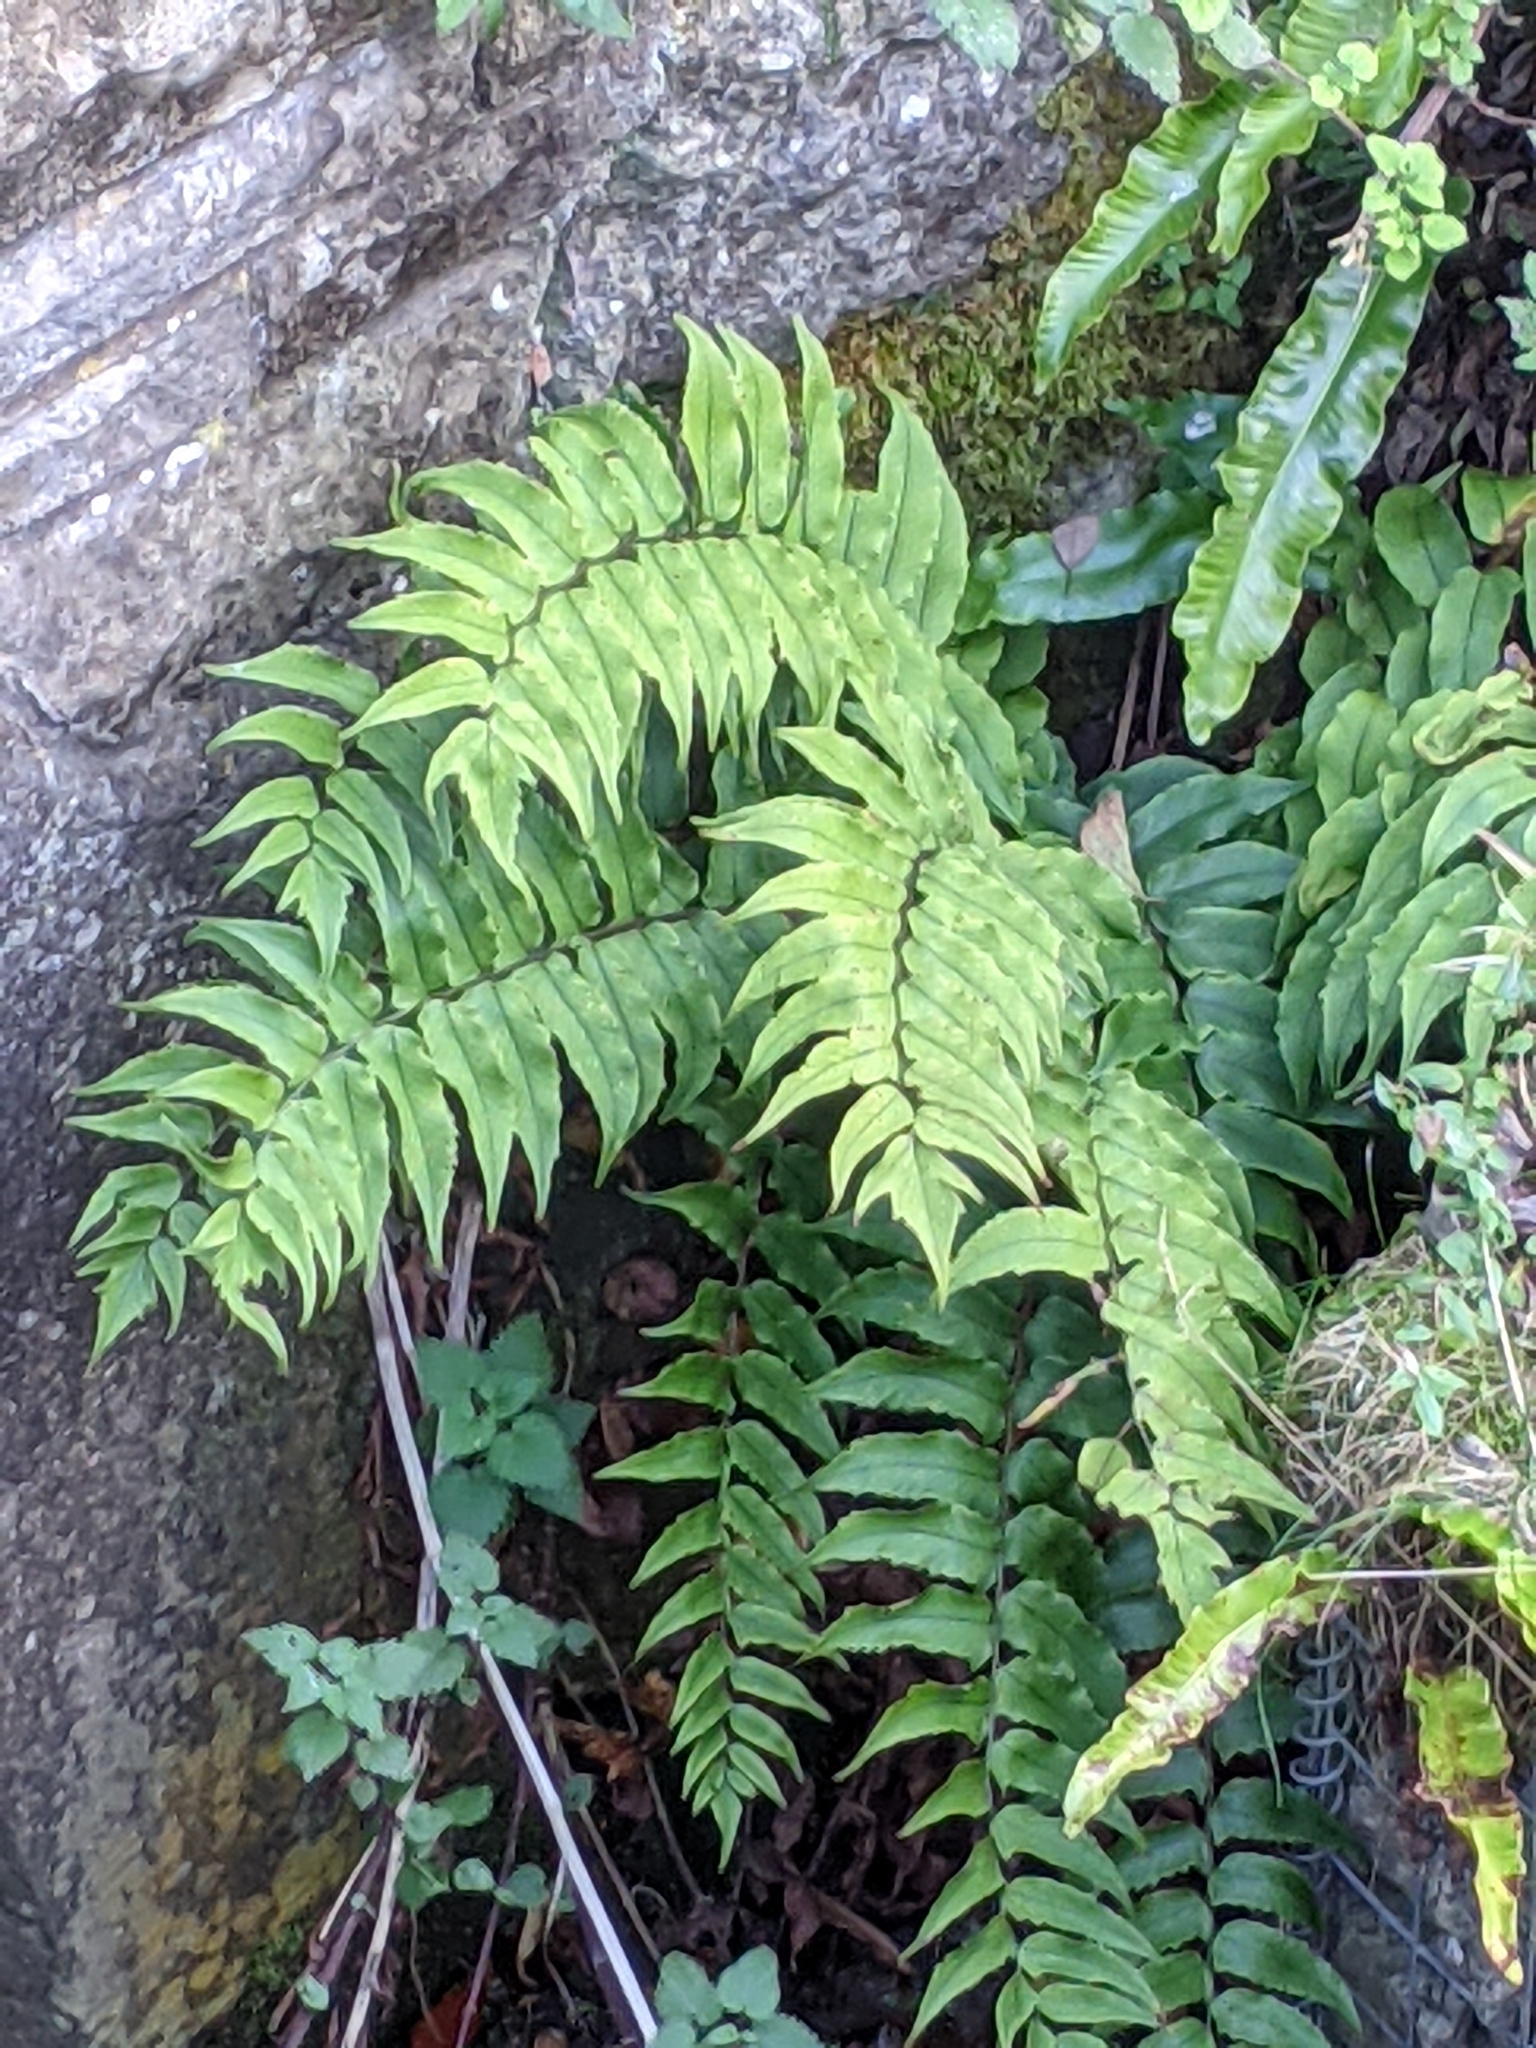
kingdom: Plantae
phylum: Tracheophyta
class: Polypodiopsida
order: Polypodiales
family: Dryopteridaceae
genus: Cyrtomium
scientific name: Cyrtomium fortunei
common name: Asian netvein hollyfern
